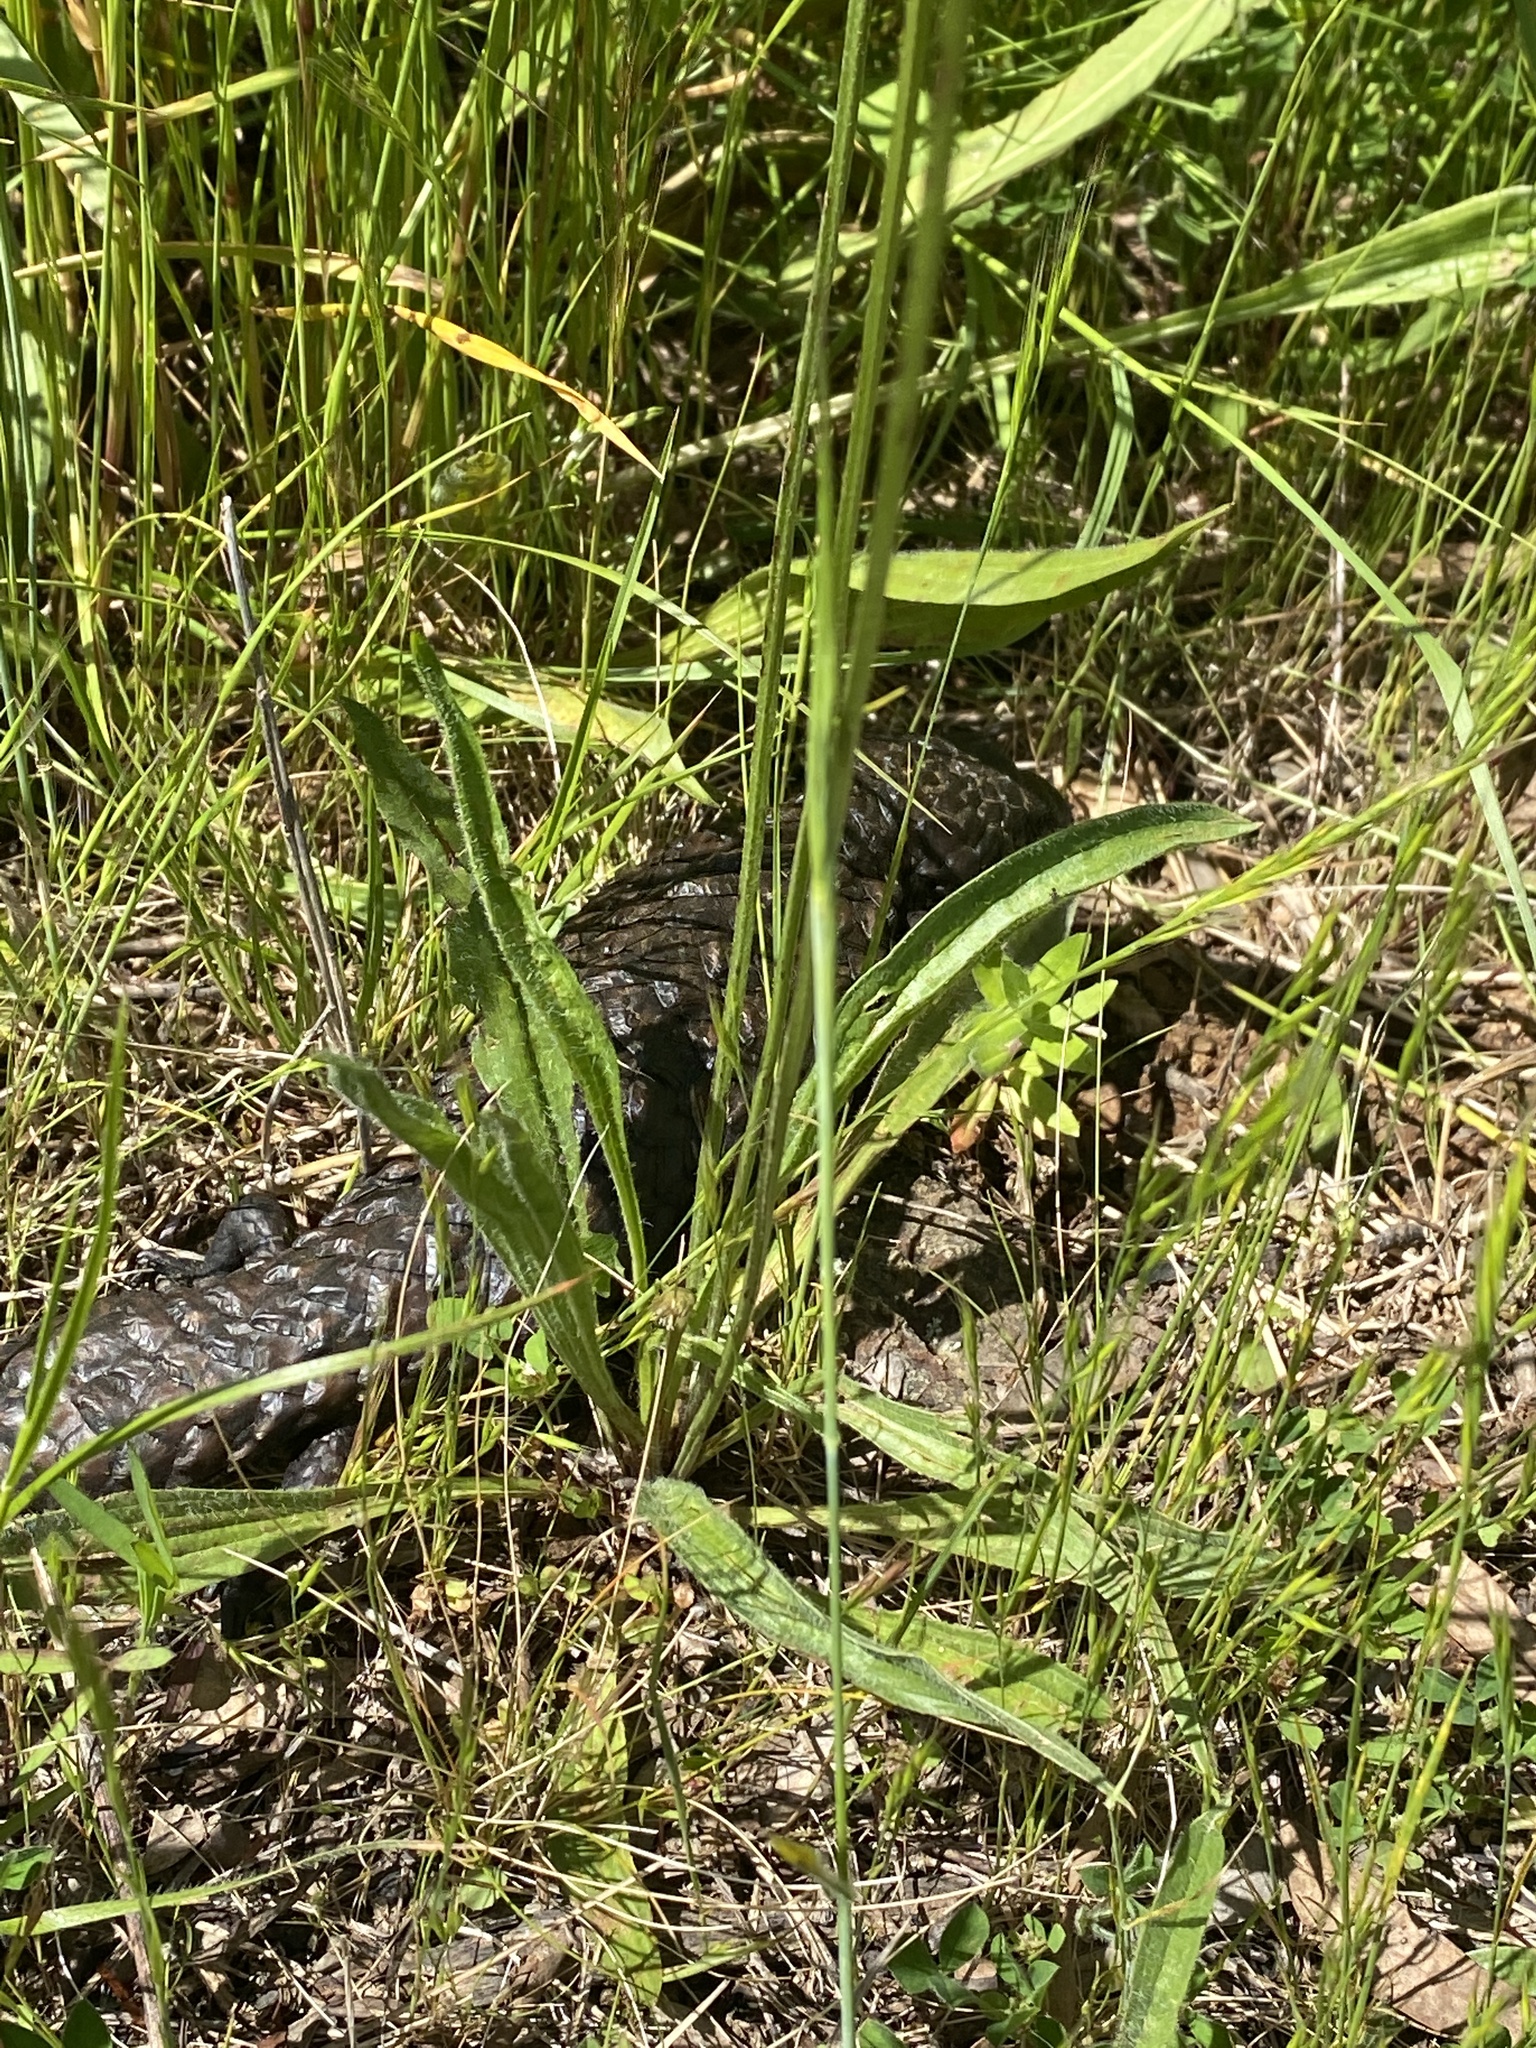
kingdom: Animalia
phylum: Chordata
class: Squamata
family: Scincidae
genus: Tiliqua
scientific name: Tiliqua rugosa
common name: Pinecone lizard
